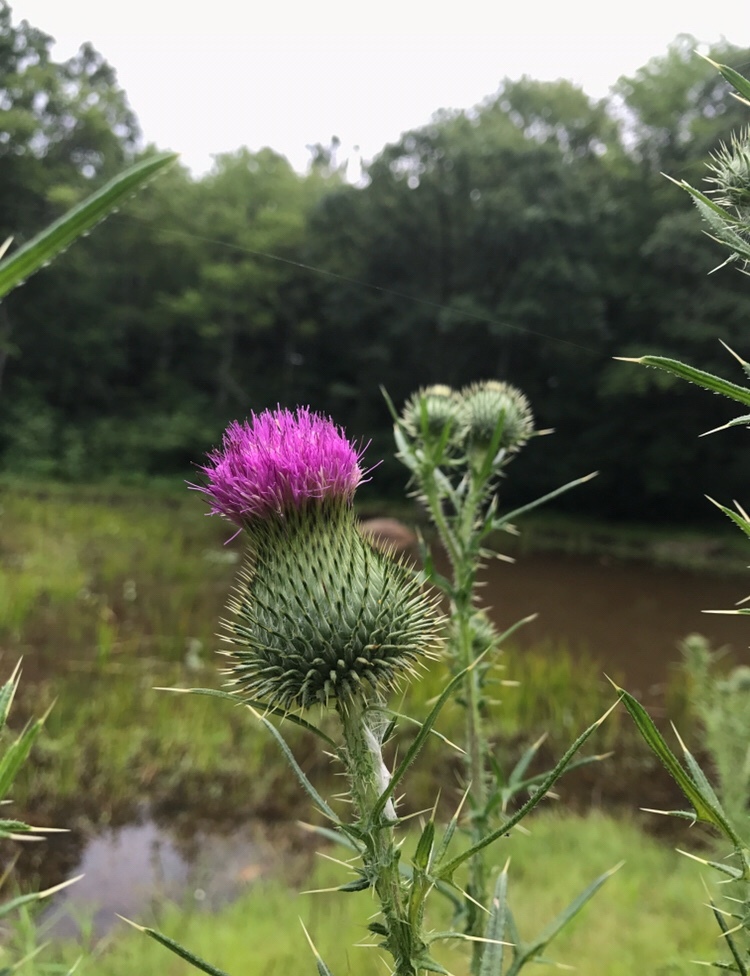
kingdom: Plantae
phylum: Tracheophyta
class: Magnoliopsida
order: Asterales
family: Asteraceae
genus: Cirsium
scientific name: Cirsium vulgare
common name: Bull thistle
